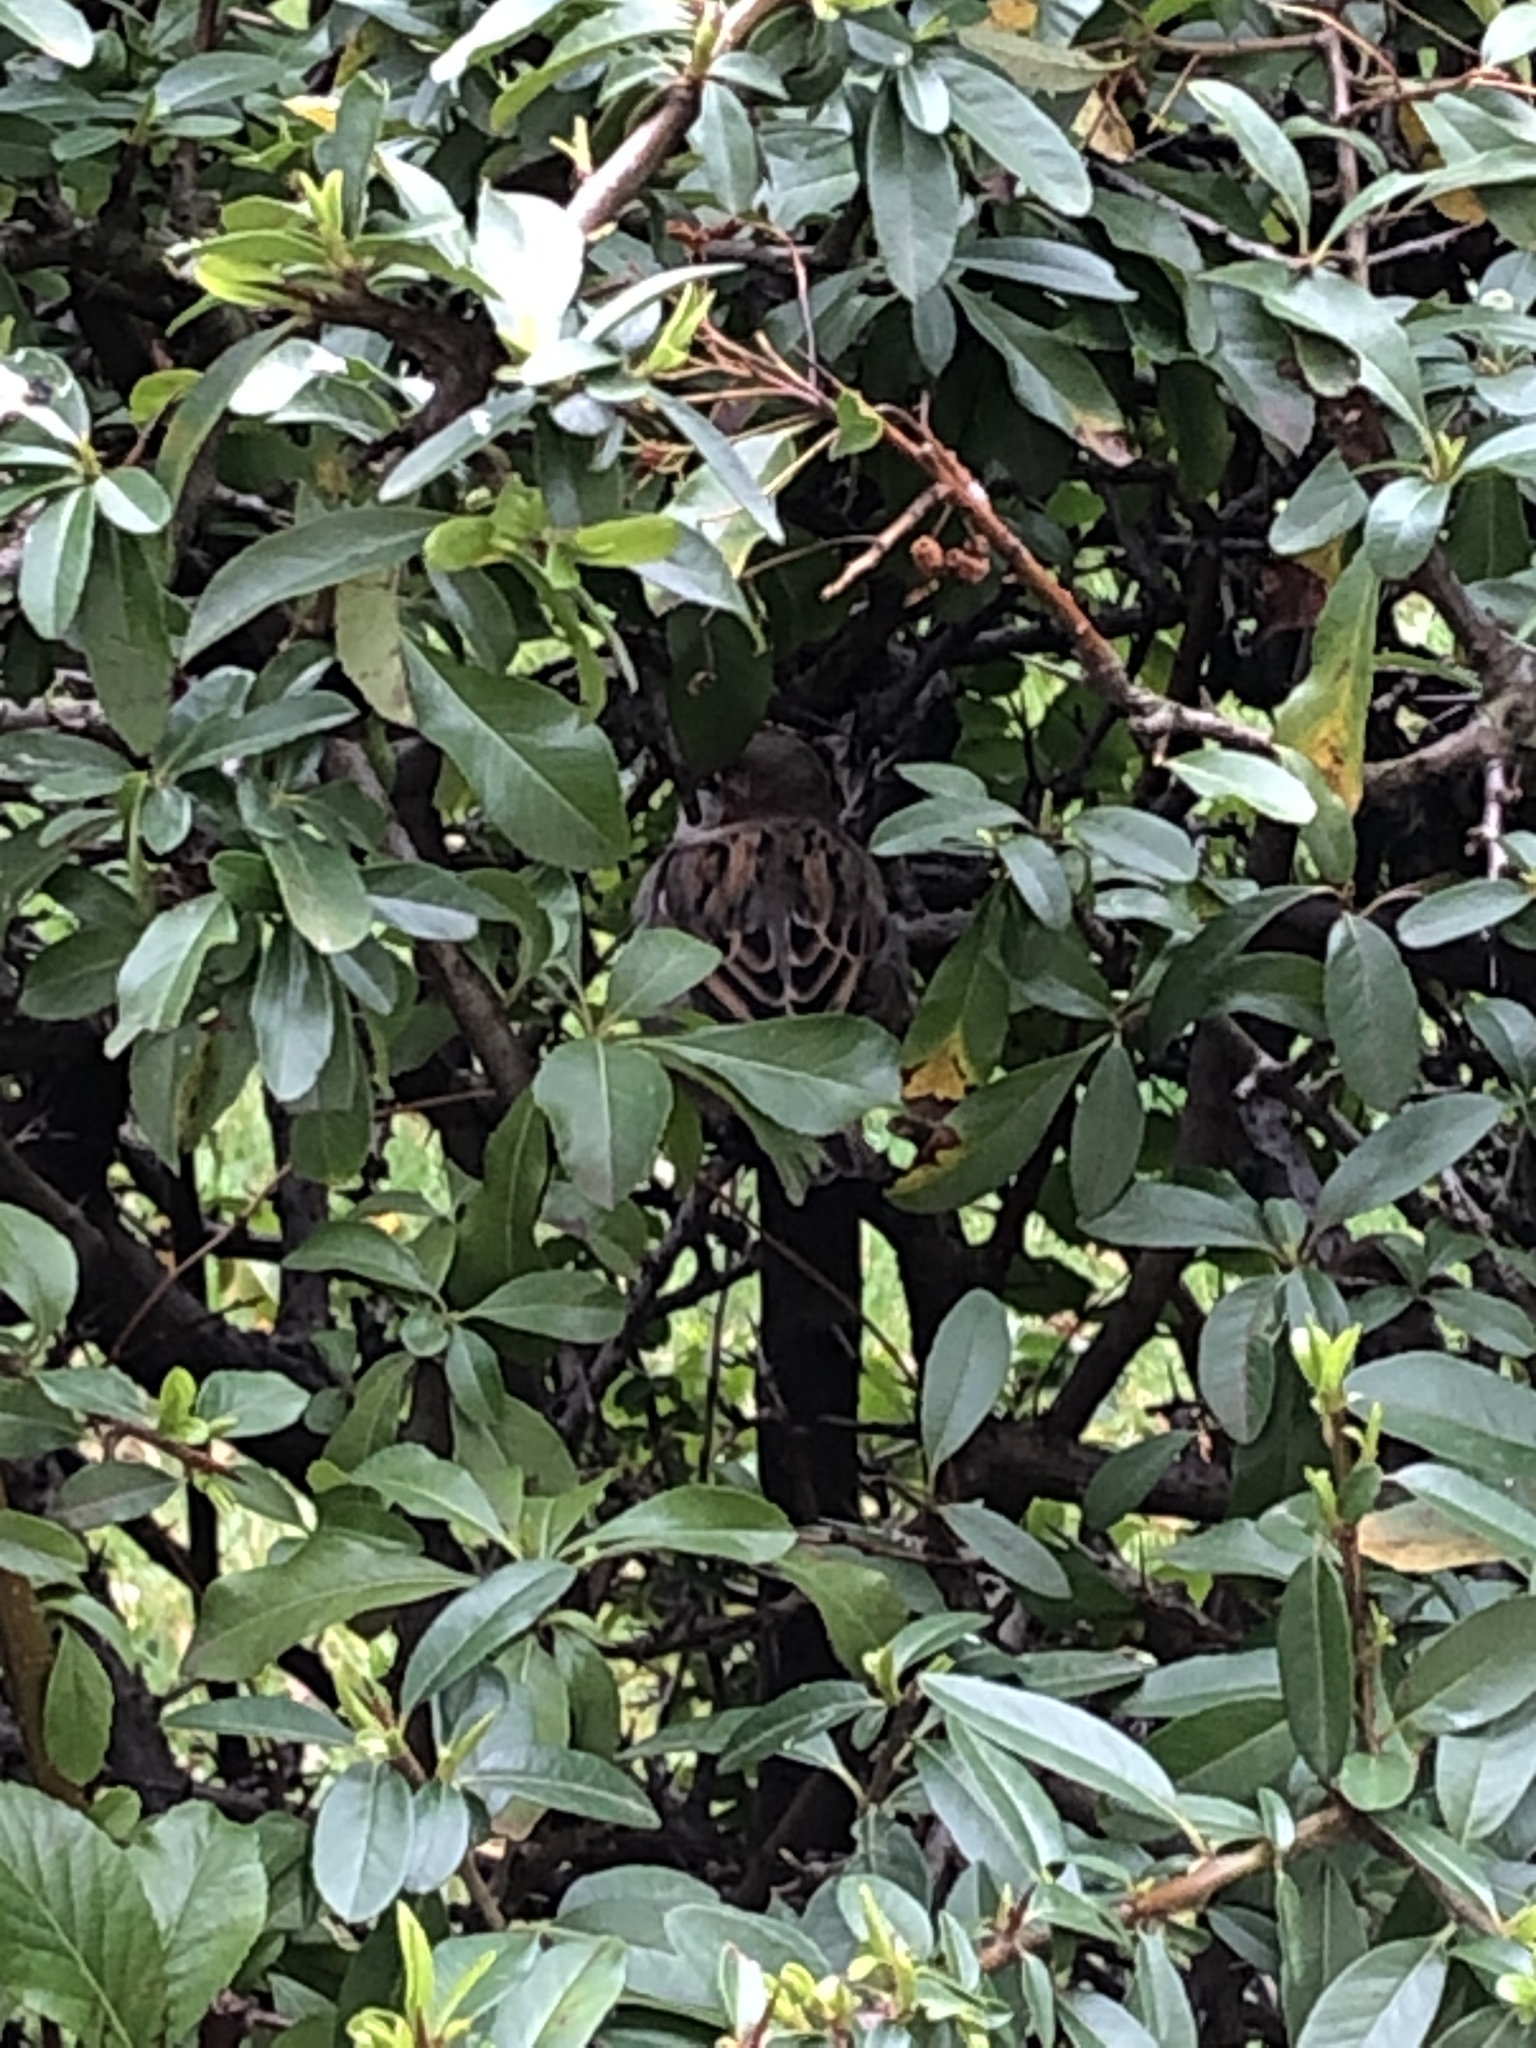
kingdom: Animalia
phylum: Chordata
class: Aves
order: Passeriformes
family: Passeridae
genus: Passer
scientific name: Passer domesticus
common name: House sparrow
